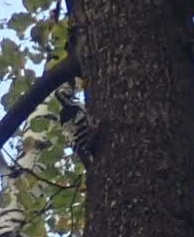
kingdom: Animalia
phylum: Chordata
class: Aves
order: Piciformes
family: Picidae
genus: Dendrocopos
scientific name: Dendrocopos leucotos
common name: White-backed woodpecker
